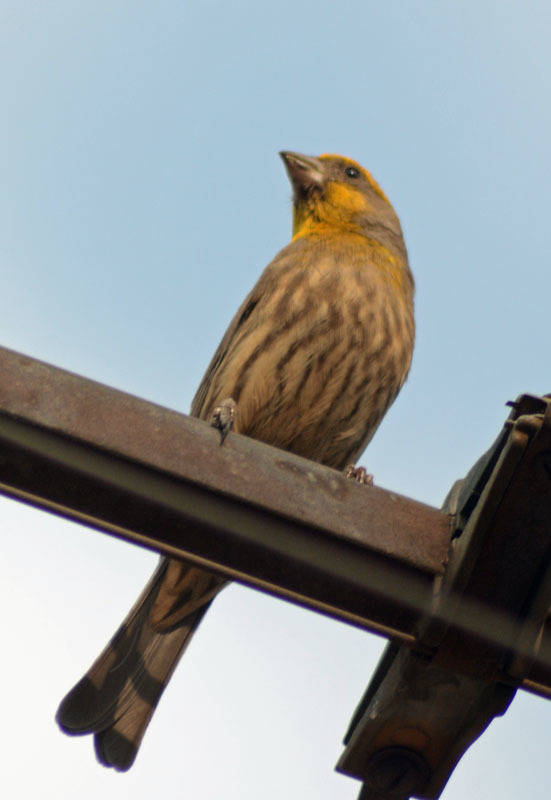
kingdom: Animalia
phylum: Chordata
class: Aves
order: Passeriformes
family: Fringillidae
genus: Haemorhous
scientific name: Haemorhous mexicanus
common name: House finch
